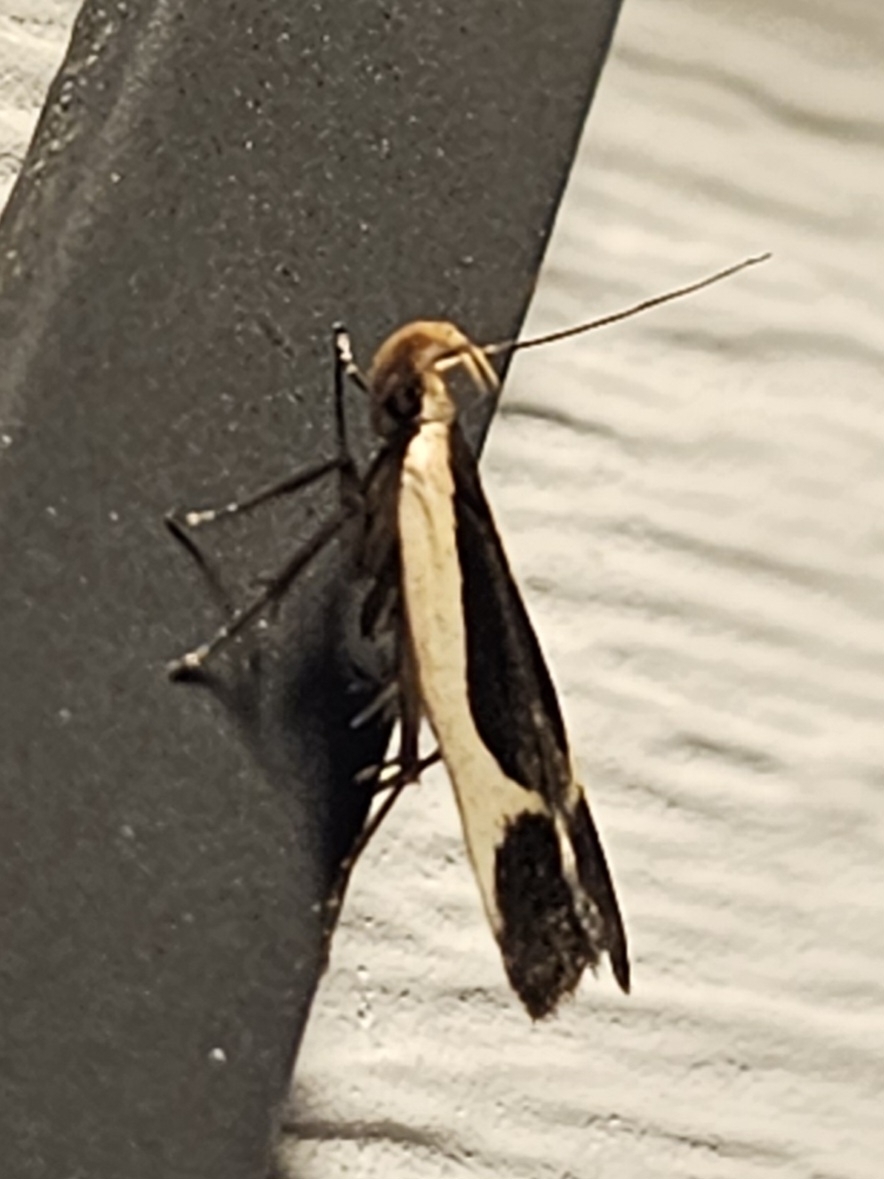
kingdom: Animalia
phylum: Arthropoda
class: Insecta
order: Lepidoptera
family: Gelechiidae
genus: Dichomeris
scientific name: Dichomeris flavocostella
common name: Cream-edged dichomeris moth
